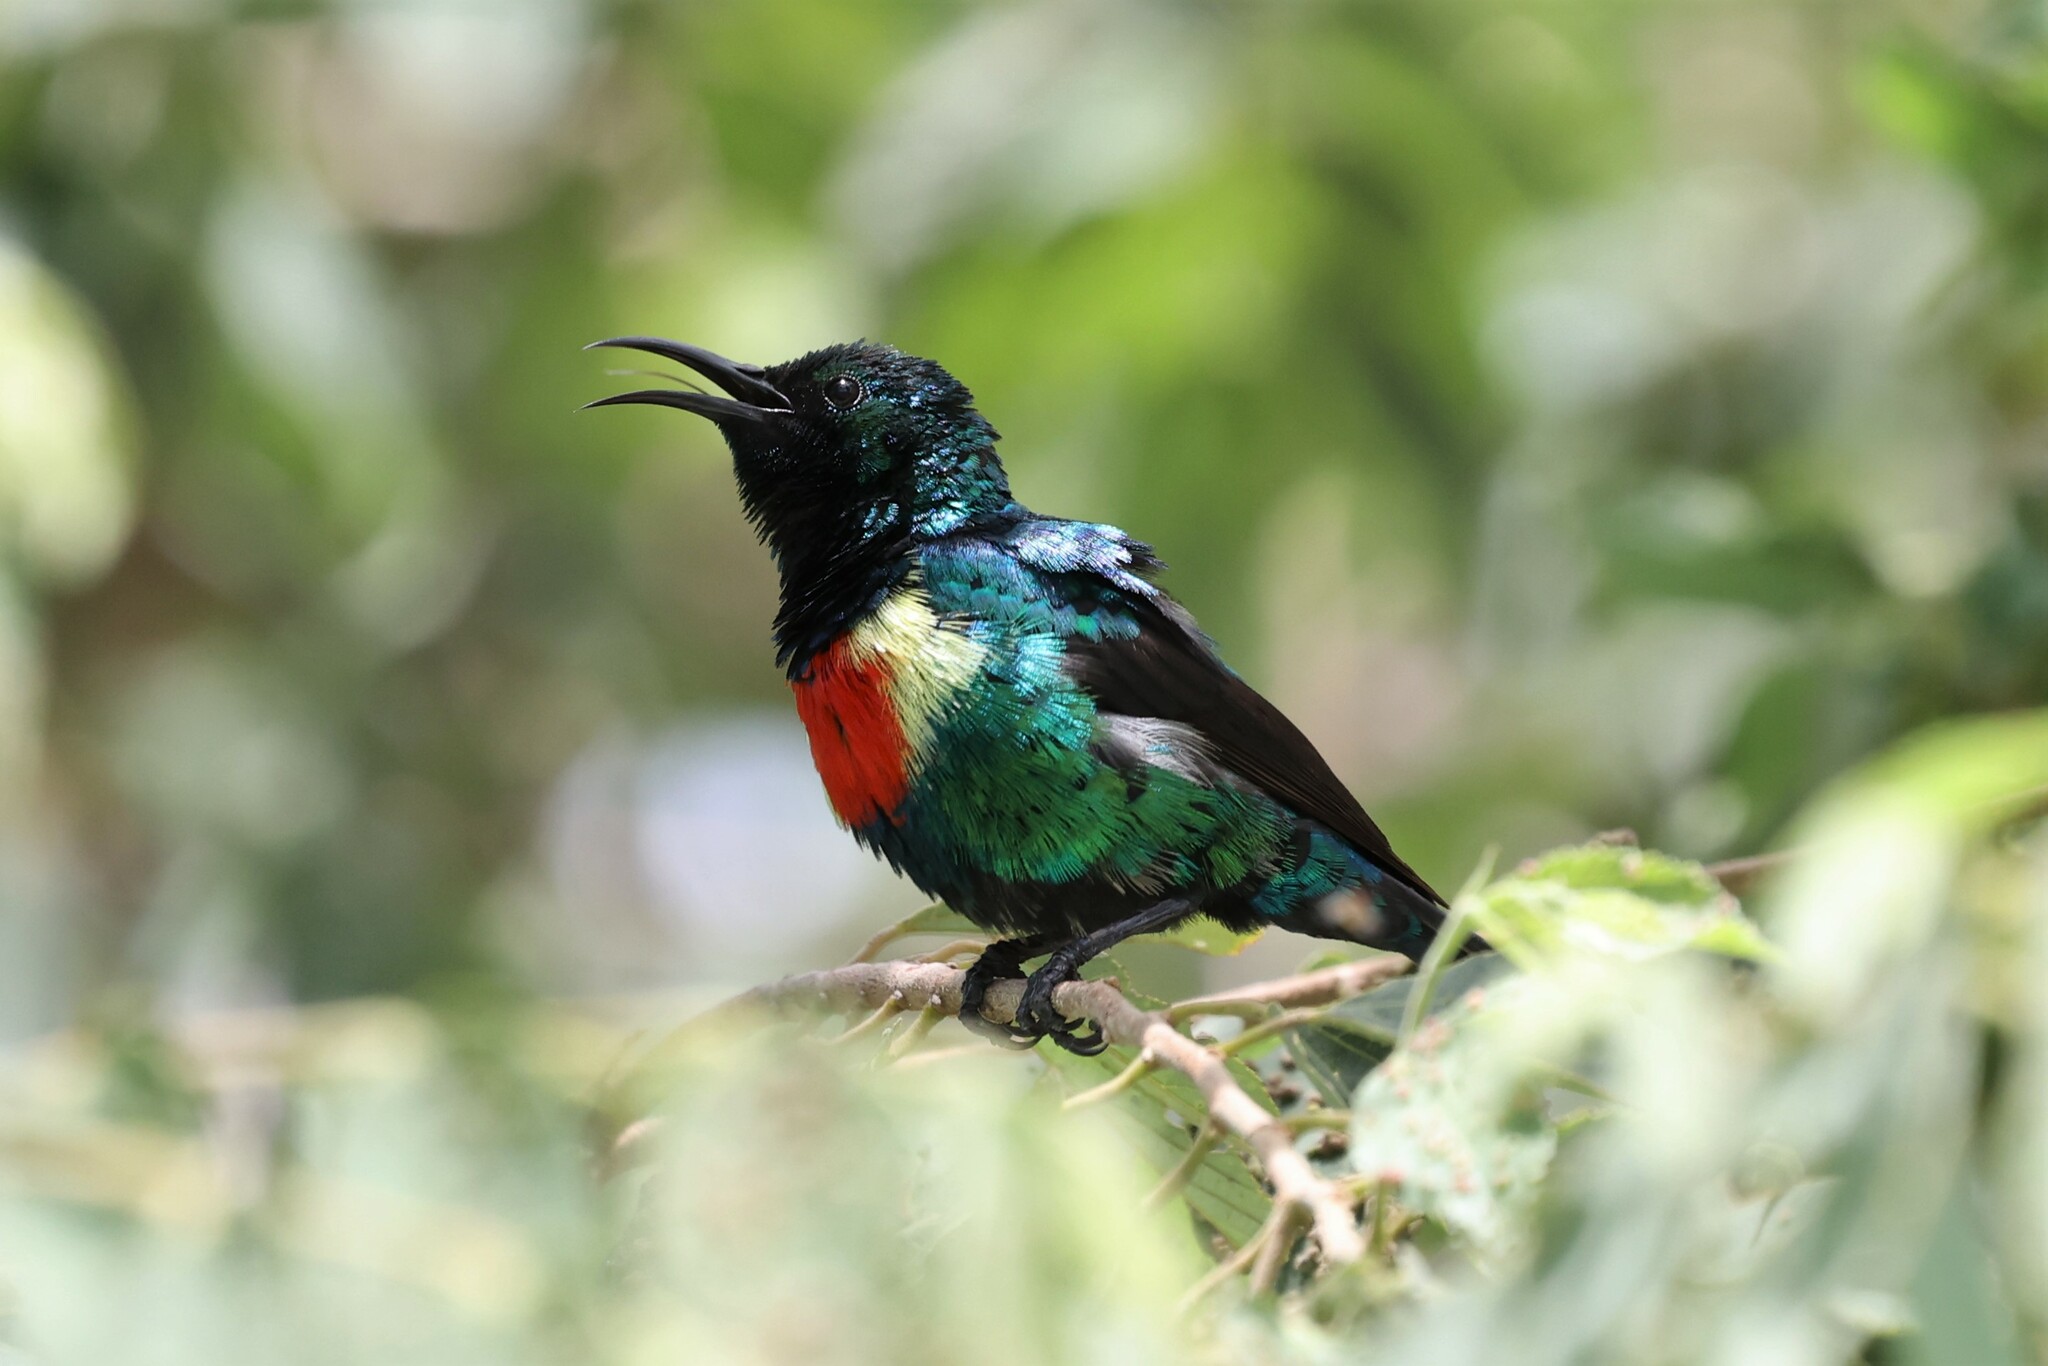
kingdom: Animalia
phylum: Chordata
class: Aves
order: Passeriformes
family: Nectariniidae
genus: Cinnyris
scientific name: Cinnyris pulchellus
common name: Beautiful sunbird
